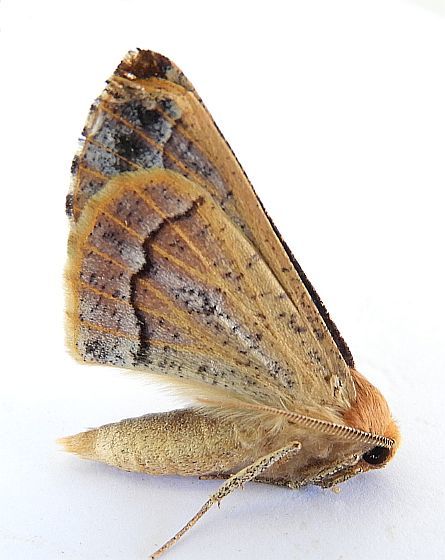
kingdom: Animalia
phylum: Arthropoda
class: Insecta
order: Lepidoptera
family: Geometridae
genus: Caripeta
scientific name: Caripeta pulcherrima
